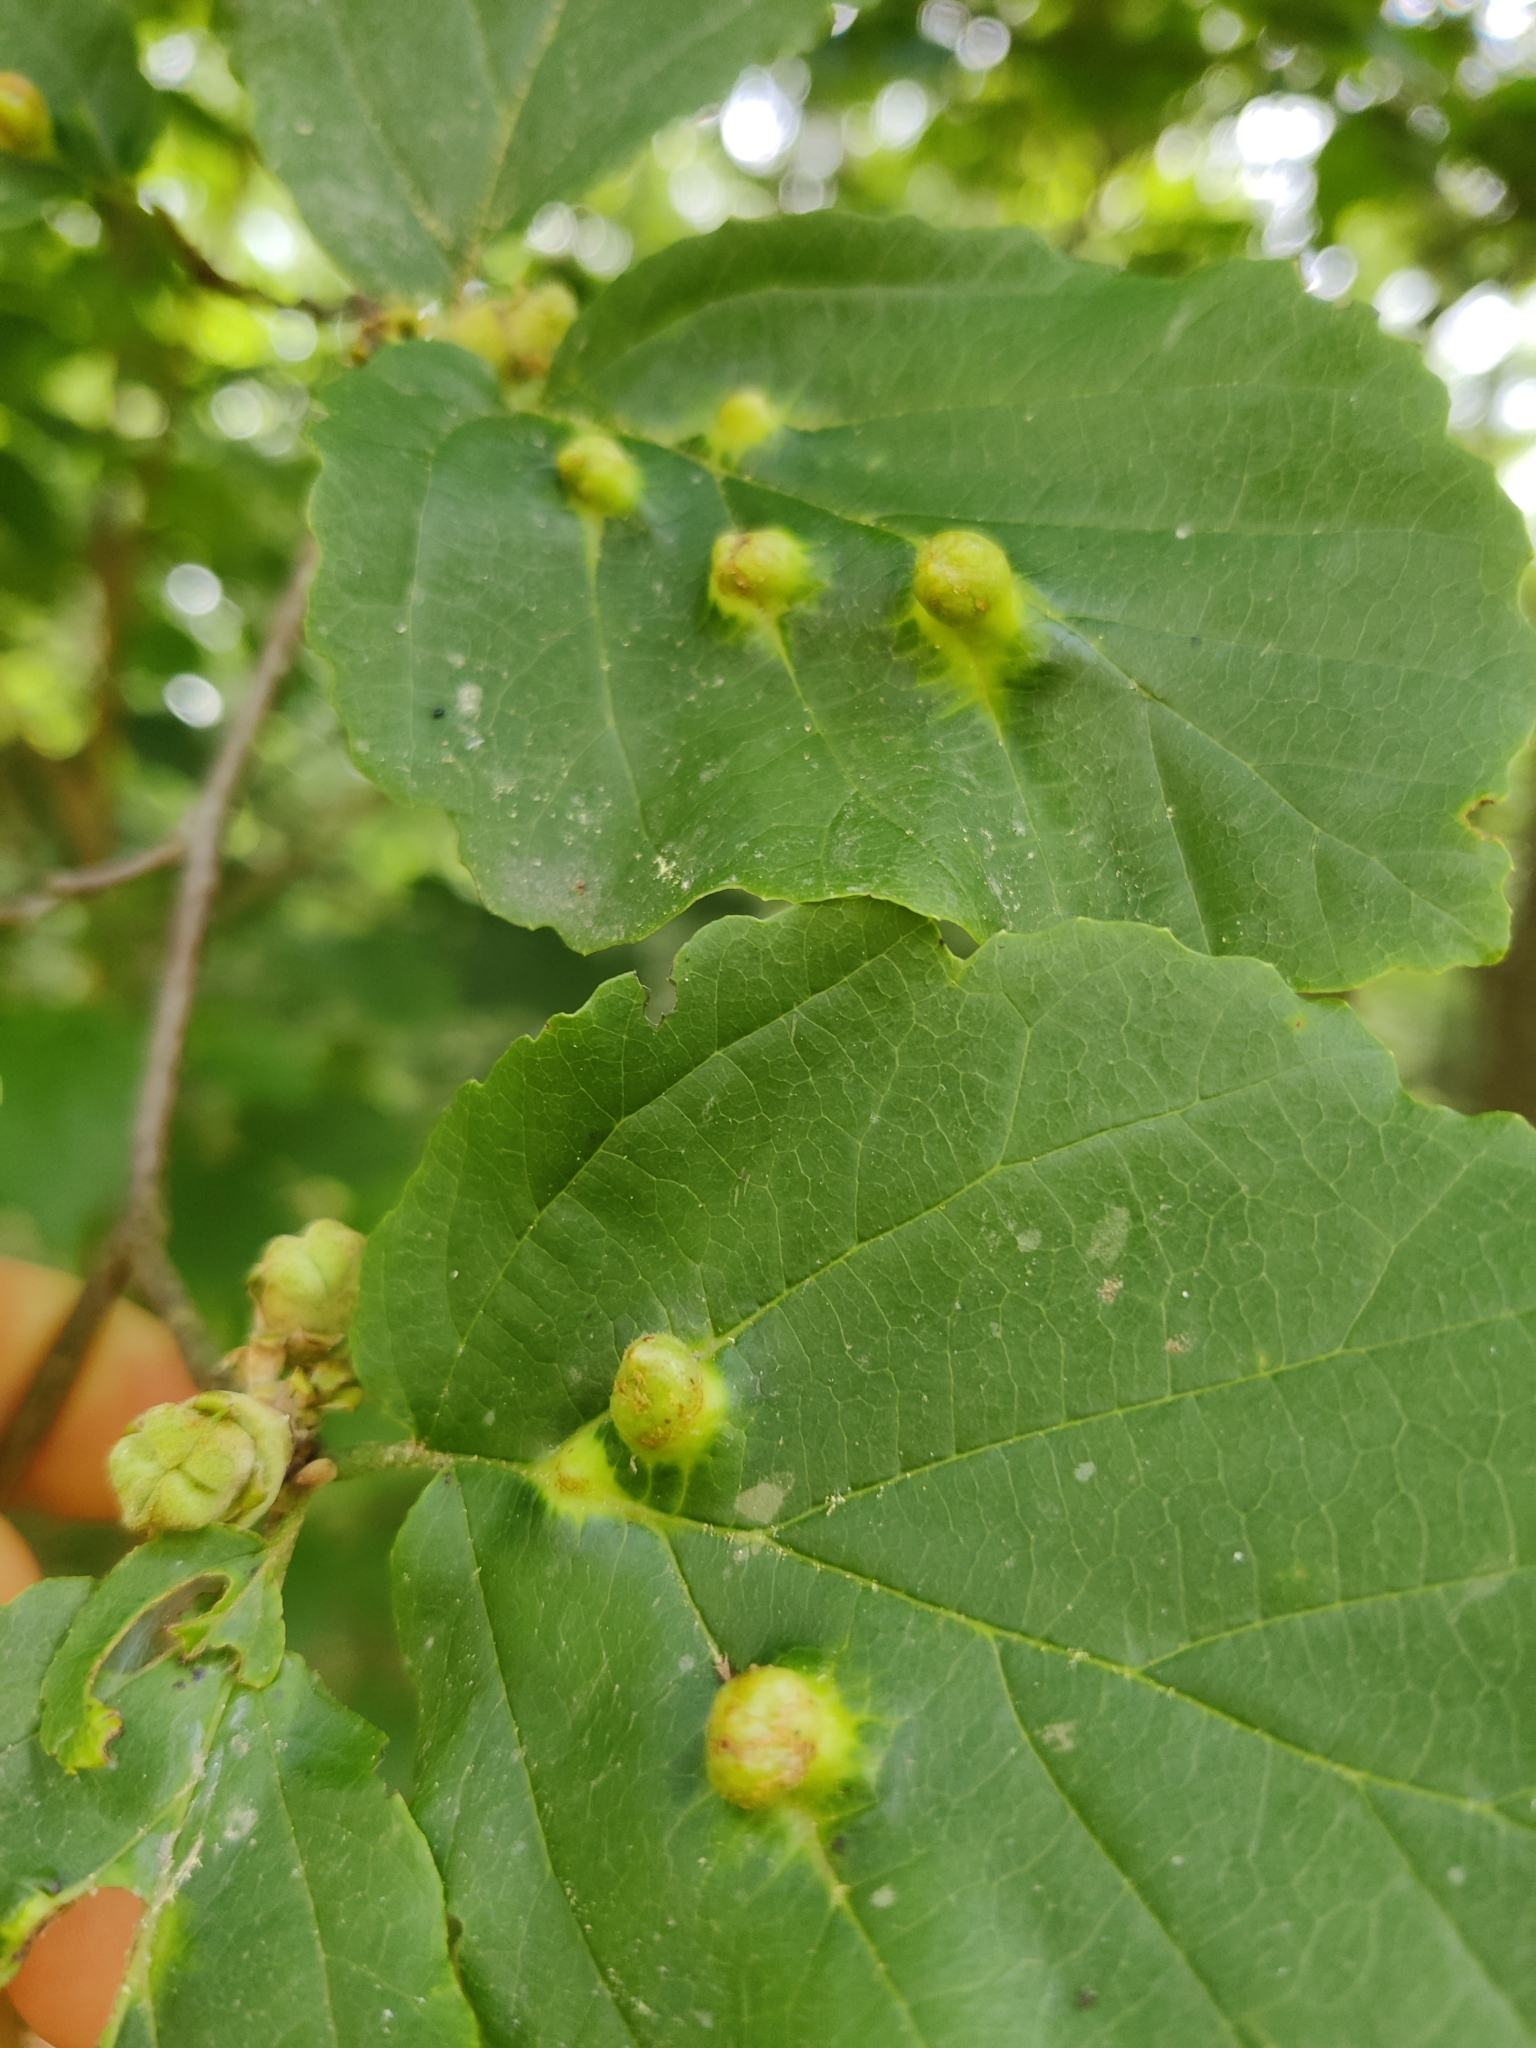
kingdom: Animalia
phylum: Arthropoda
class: Insecta
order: Hemiptera
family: Aphididae
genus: Hormaphis
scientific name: Hormaphis hamamelidis
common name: Witch-hazel cone gall aphid
